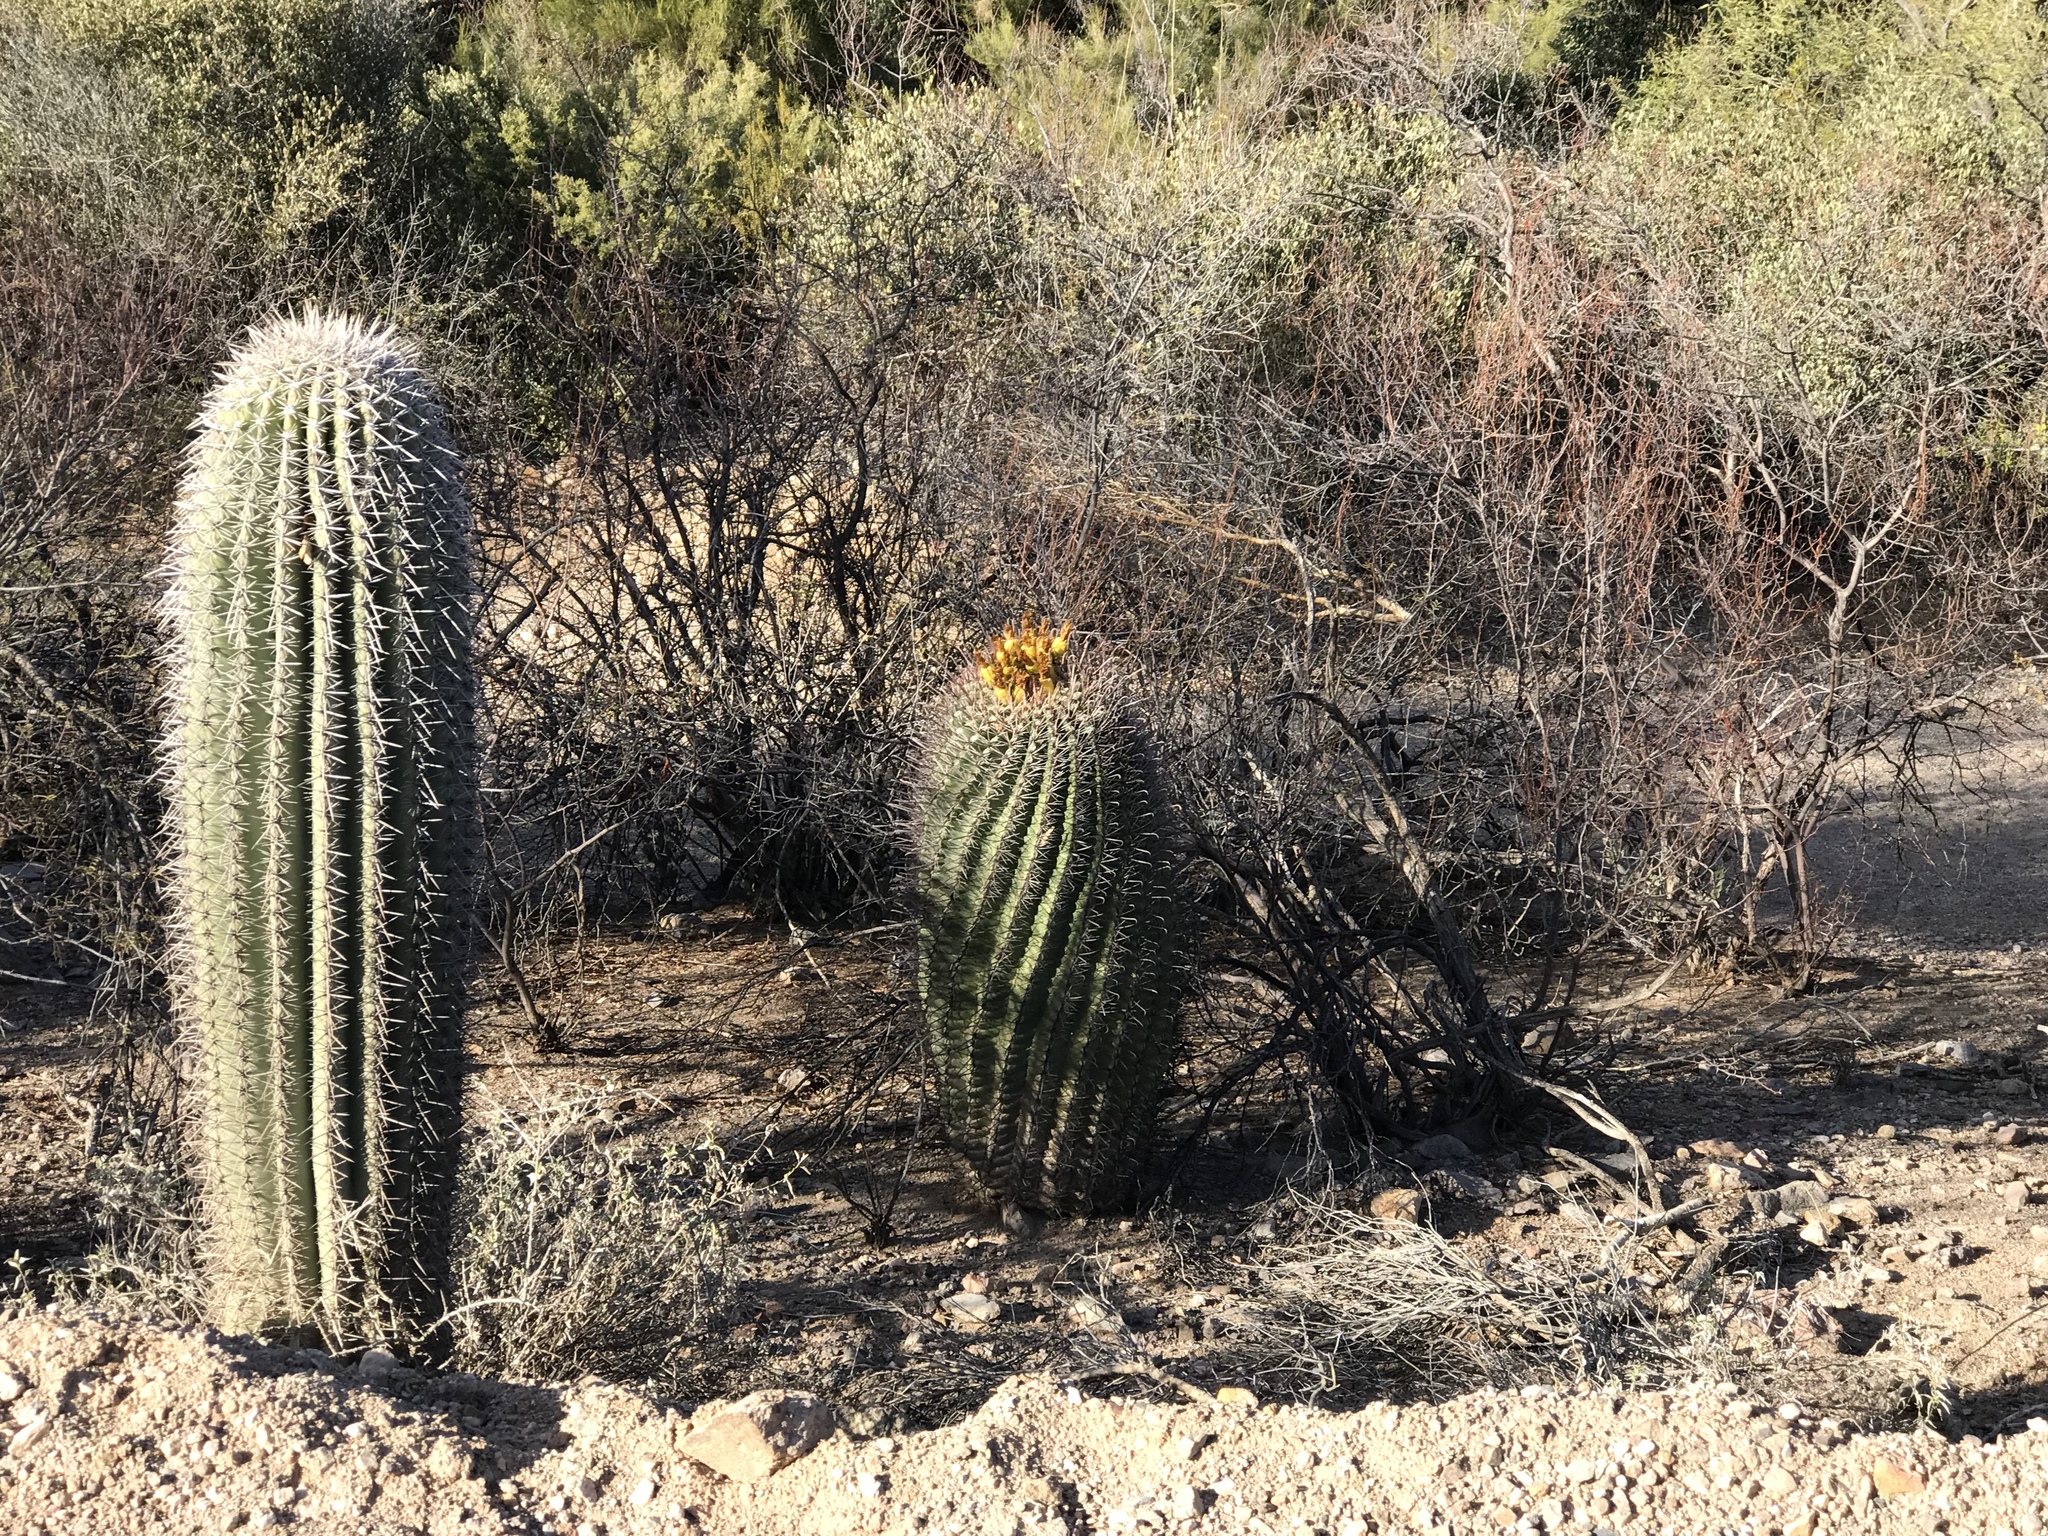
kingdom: Plantae
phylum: Tracheophyta
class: Magnoliopsida
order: Caryophyllales
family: Cactaceae
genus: Ferocactus
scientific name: Ferocactus wislizeni
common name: Candy barrel cactus
